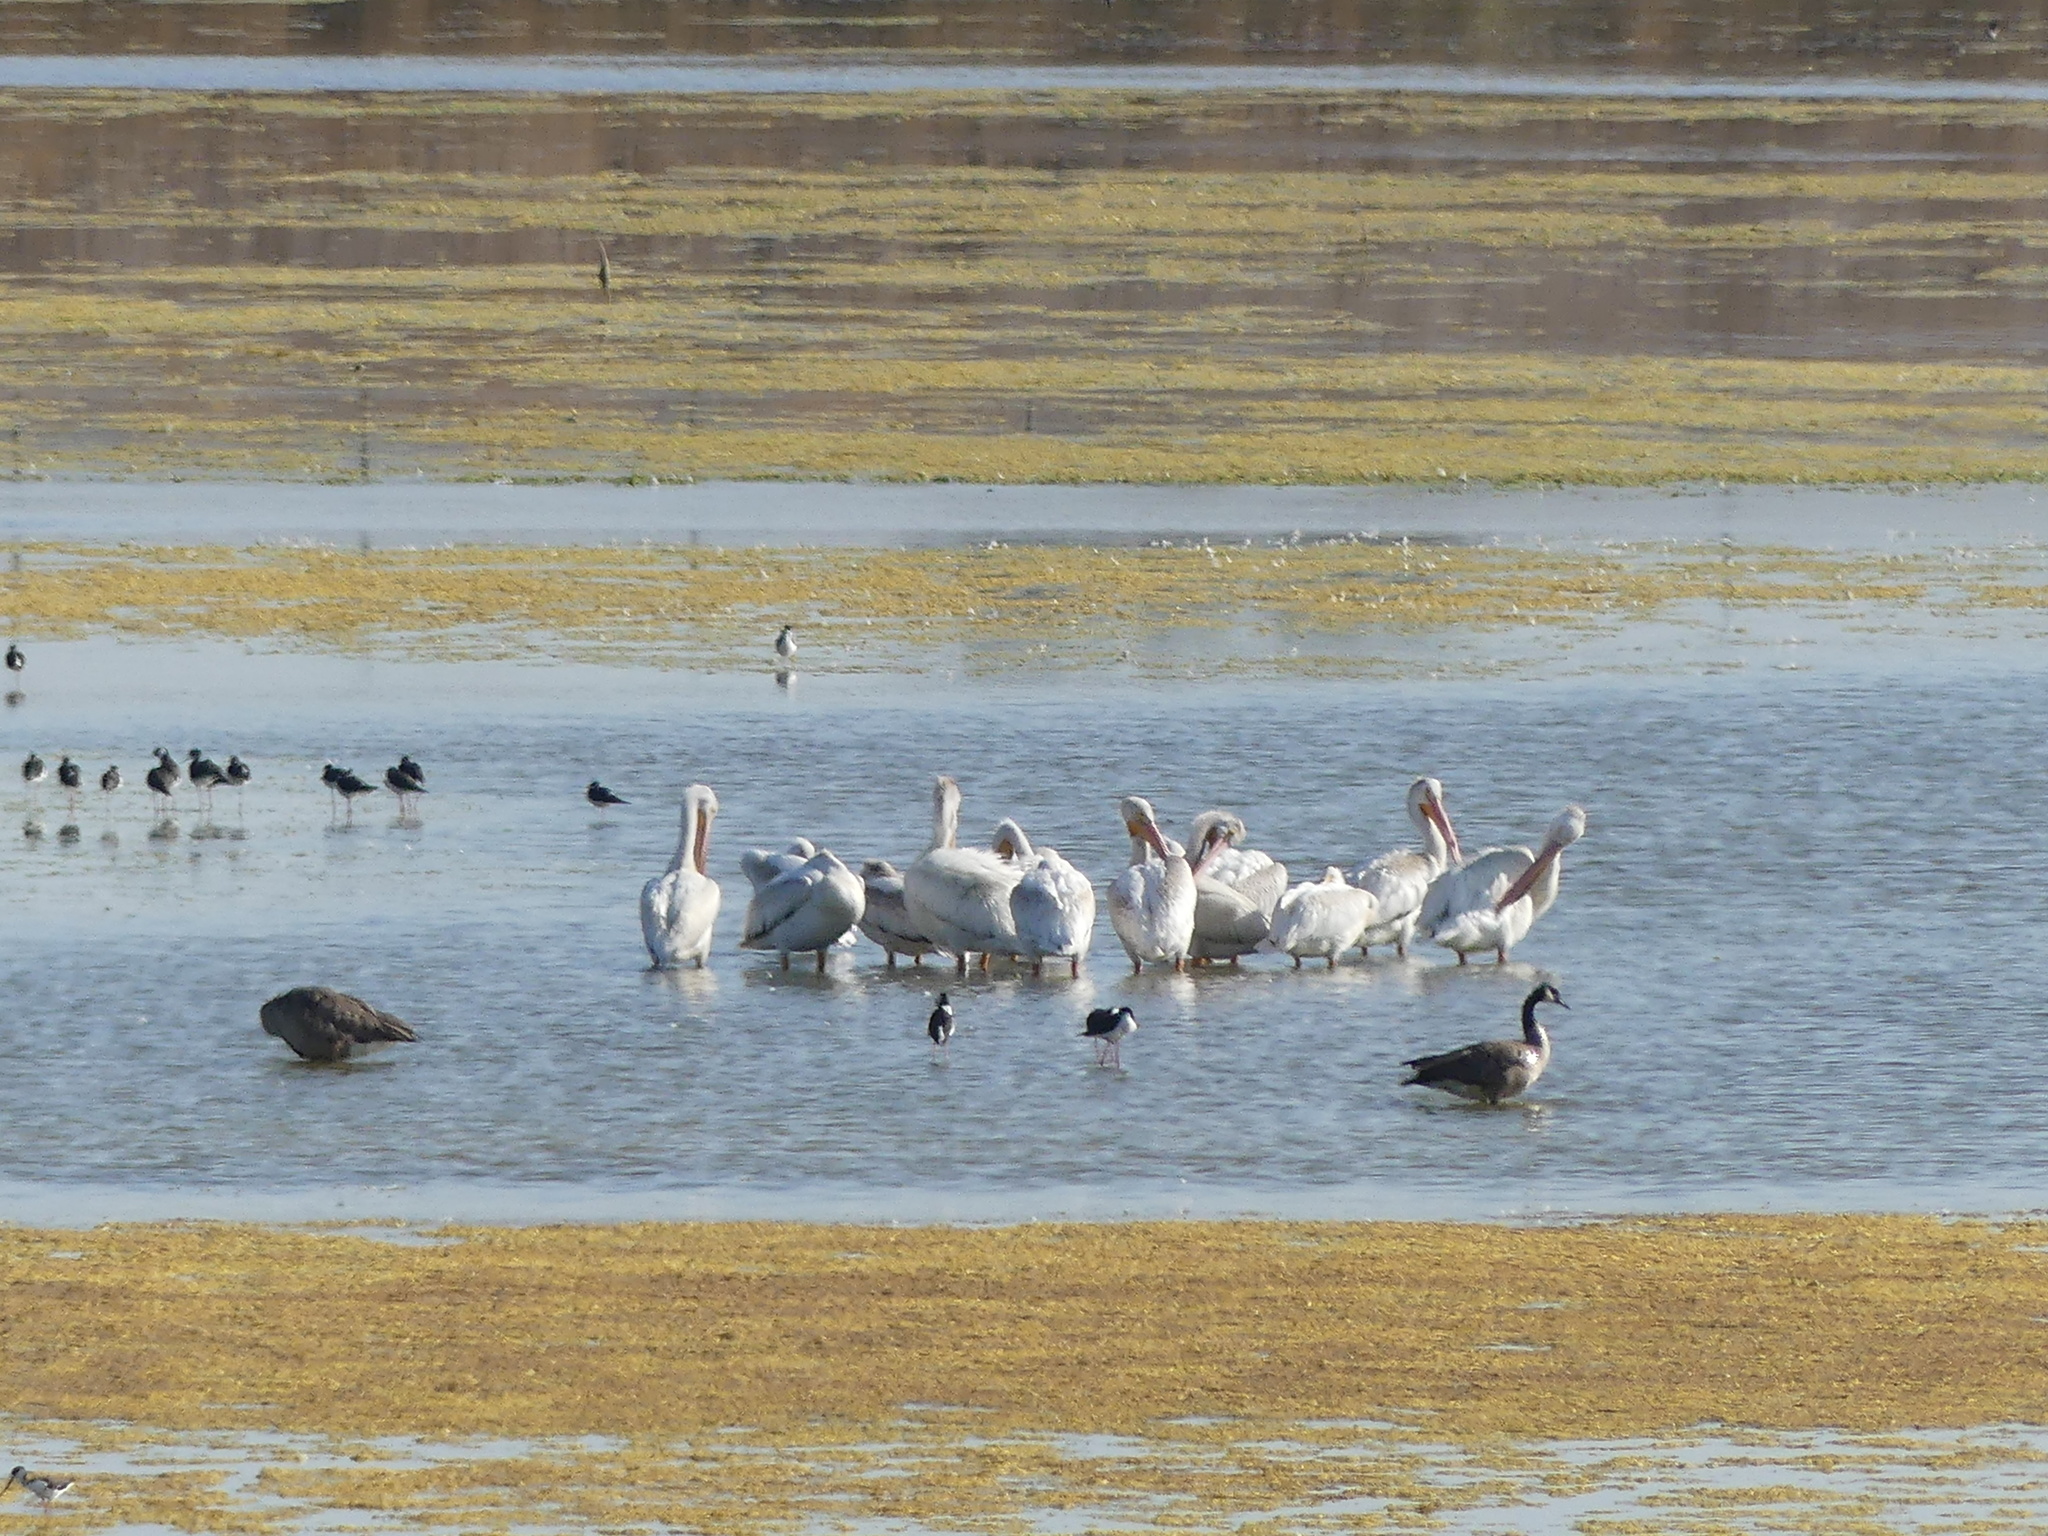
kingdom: Animalia
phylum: Chordata
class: Aves
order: Pelecaniformes
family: Pelecanidae
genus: Pelecanus
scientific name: Pelecanus erythrorhynchos
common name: American white pelican
